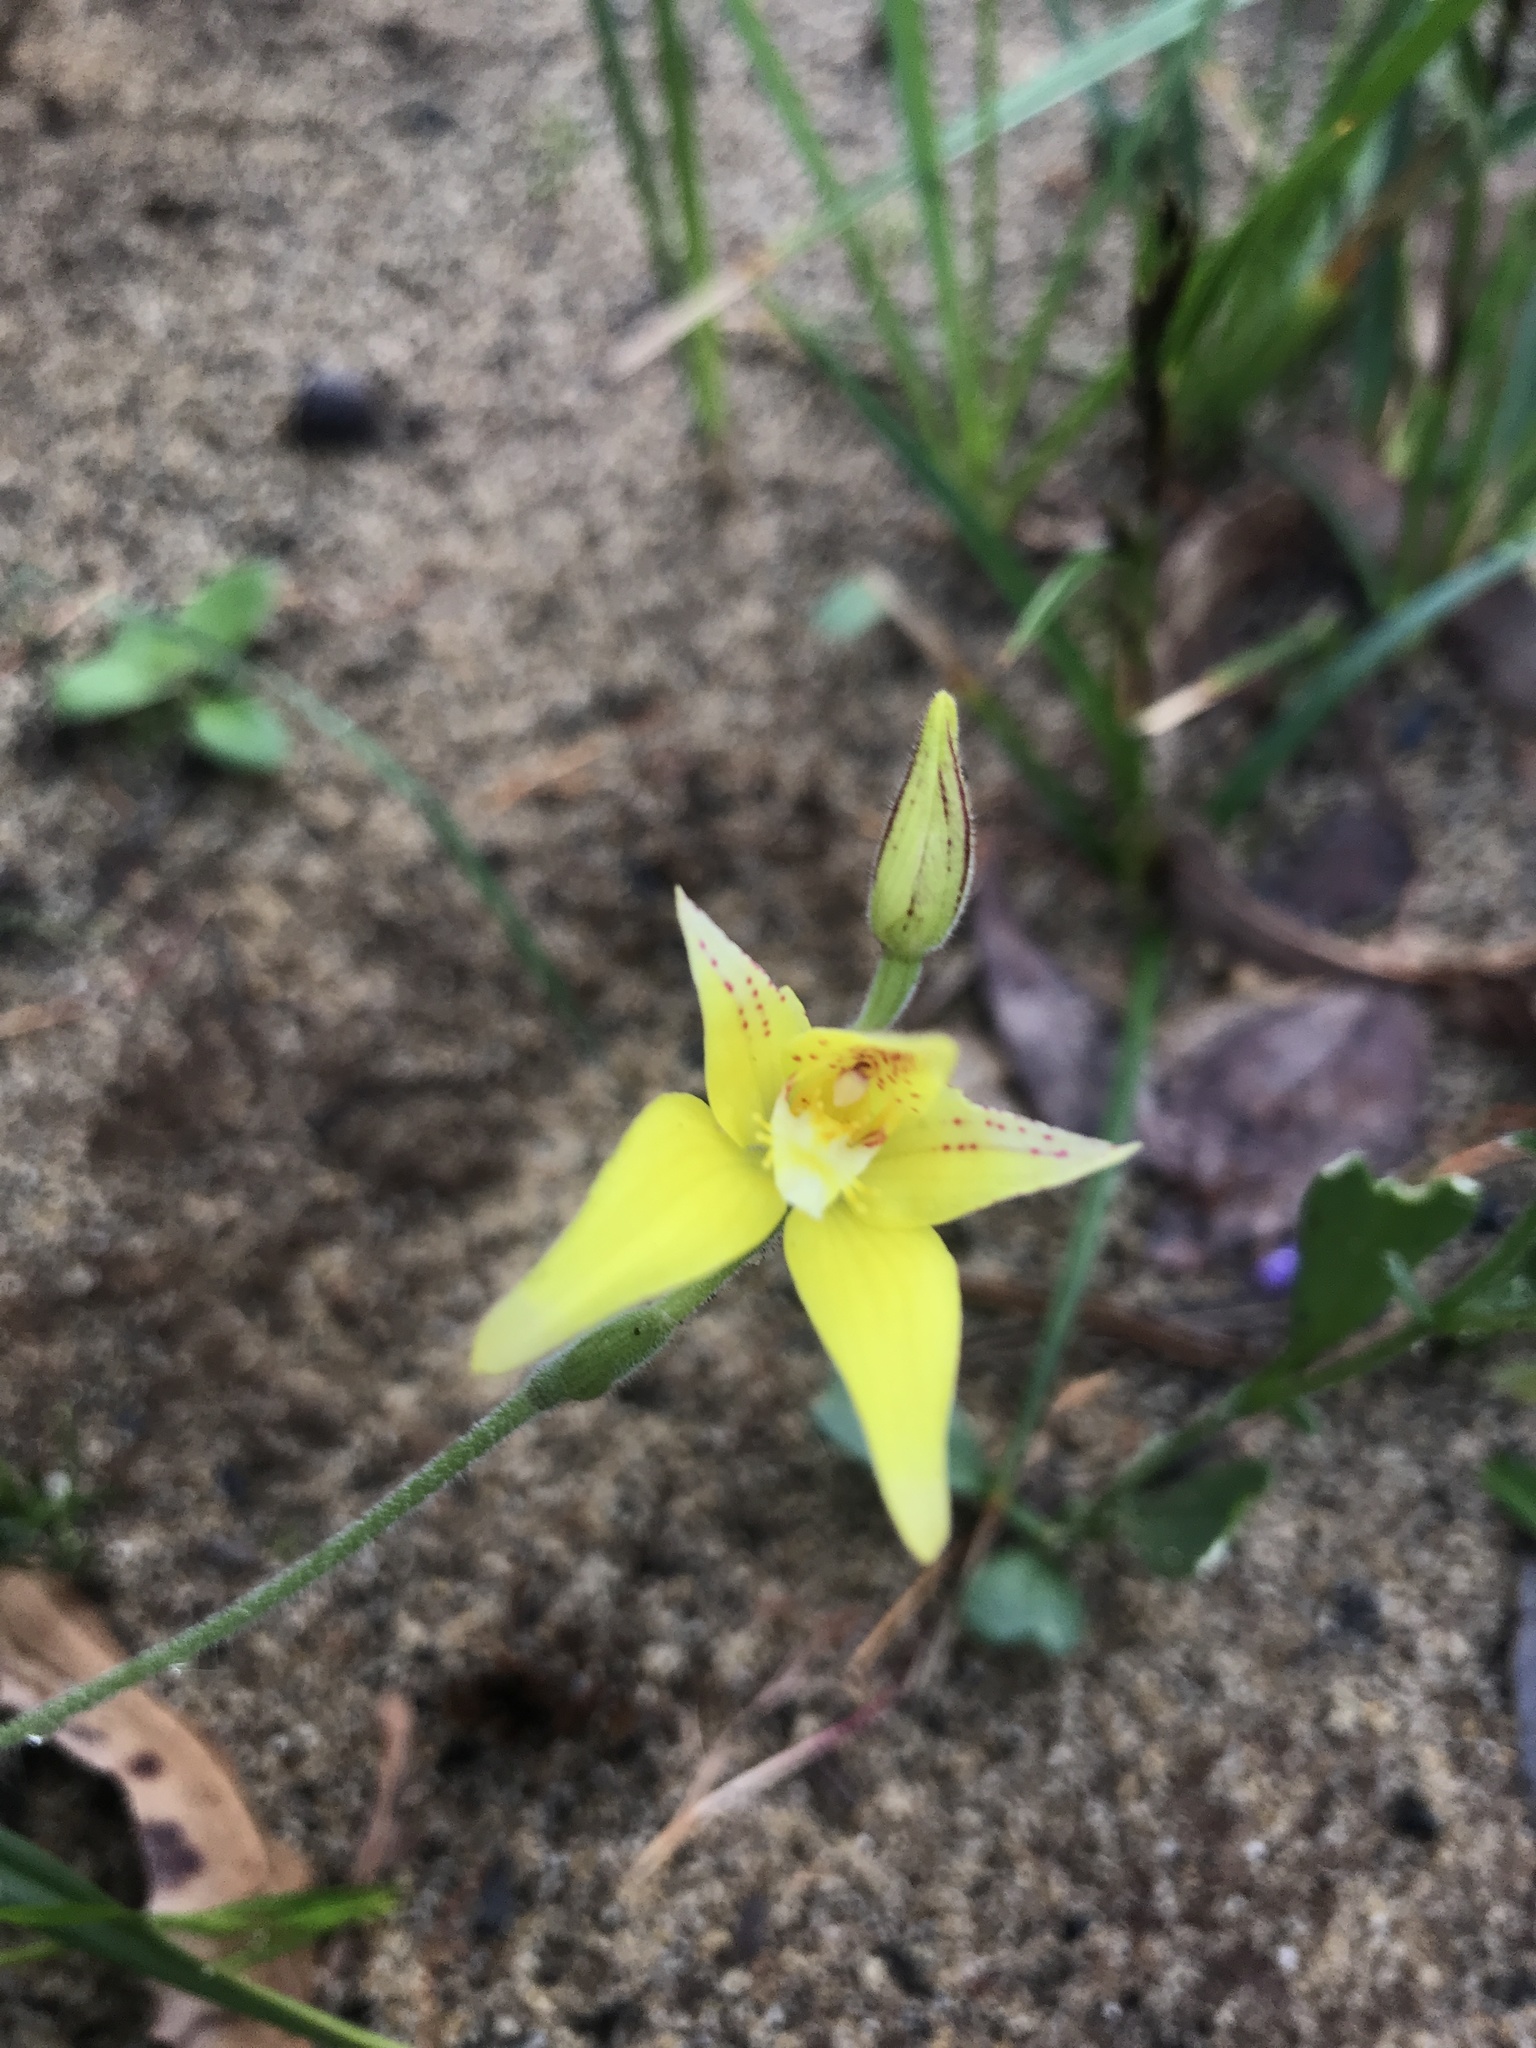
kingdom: Plantae
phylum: Tracheophyta
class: Liliopsida
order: Asparagales
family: Orchidaceae
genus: Caladenia
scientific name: Caladenia flava
